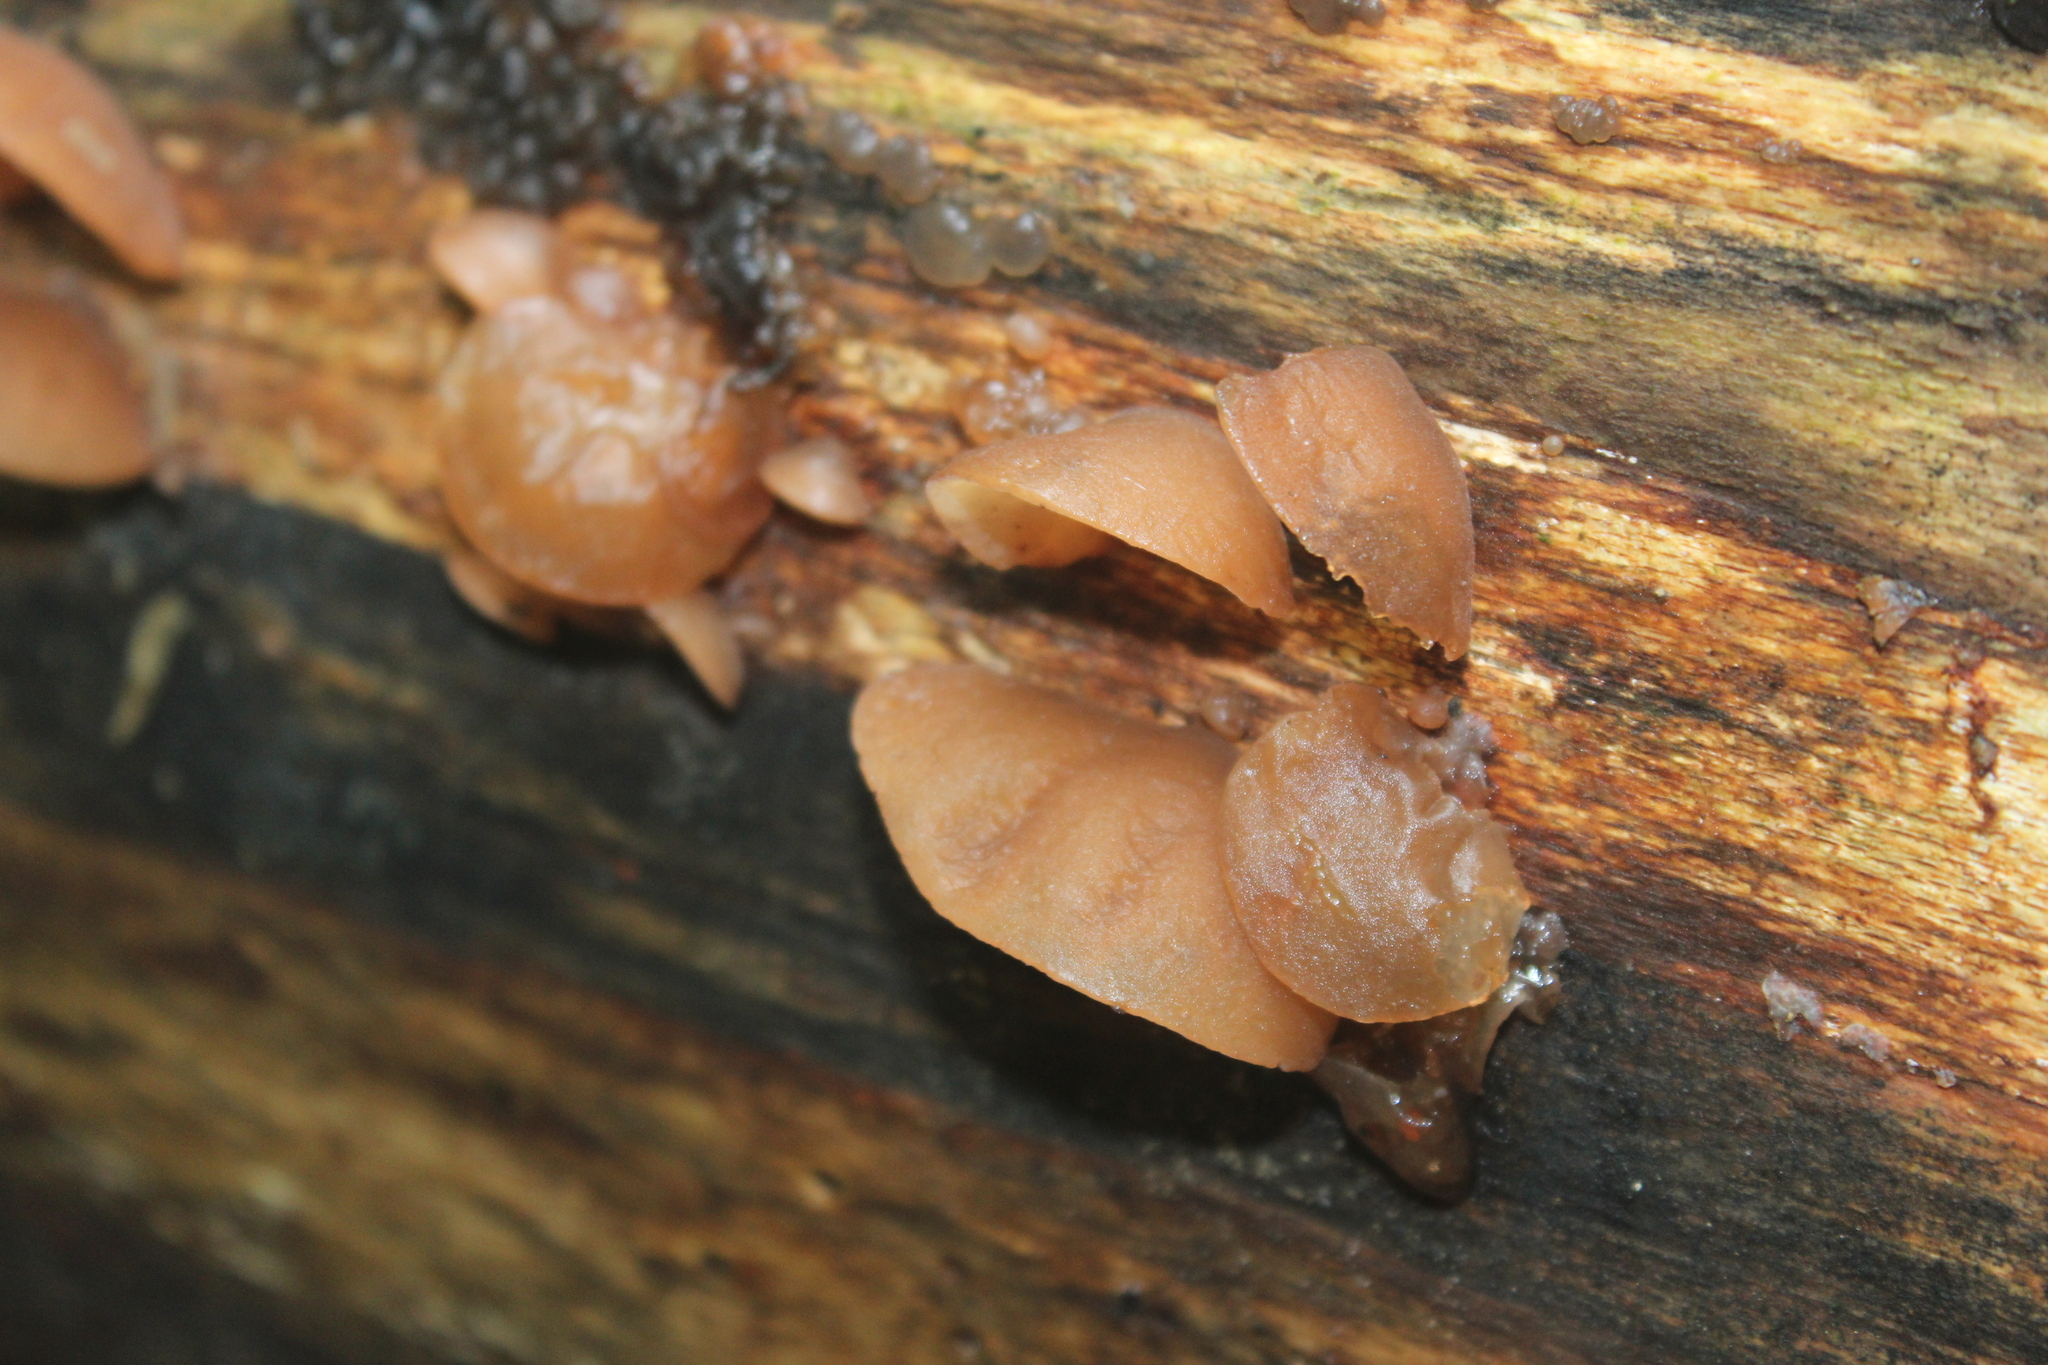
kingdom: Fungi
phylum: Basidiomycota
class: Agaricomycetes
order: Auriculariales
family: Auriculariaceae
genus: Auricularia
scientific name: Auricularia auricula-judae
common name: Jelly ear
